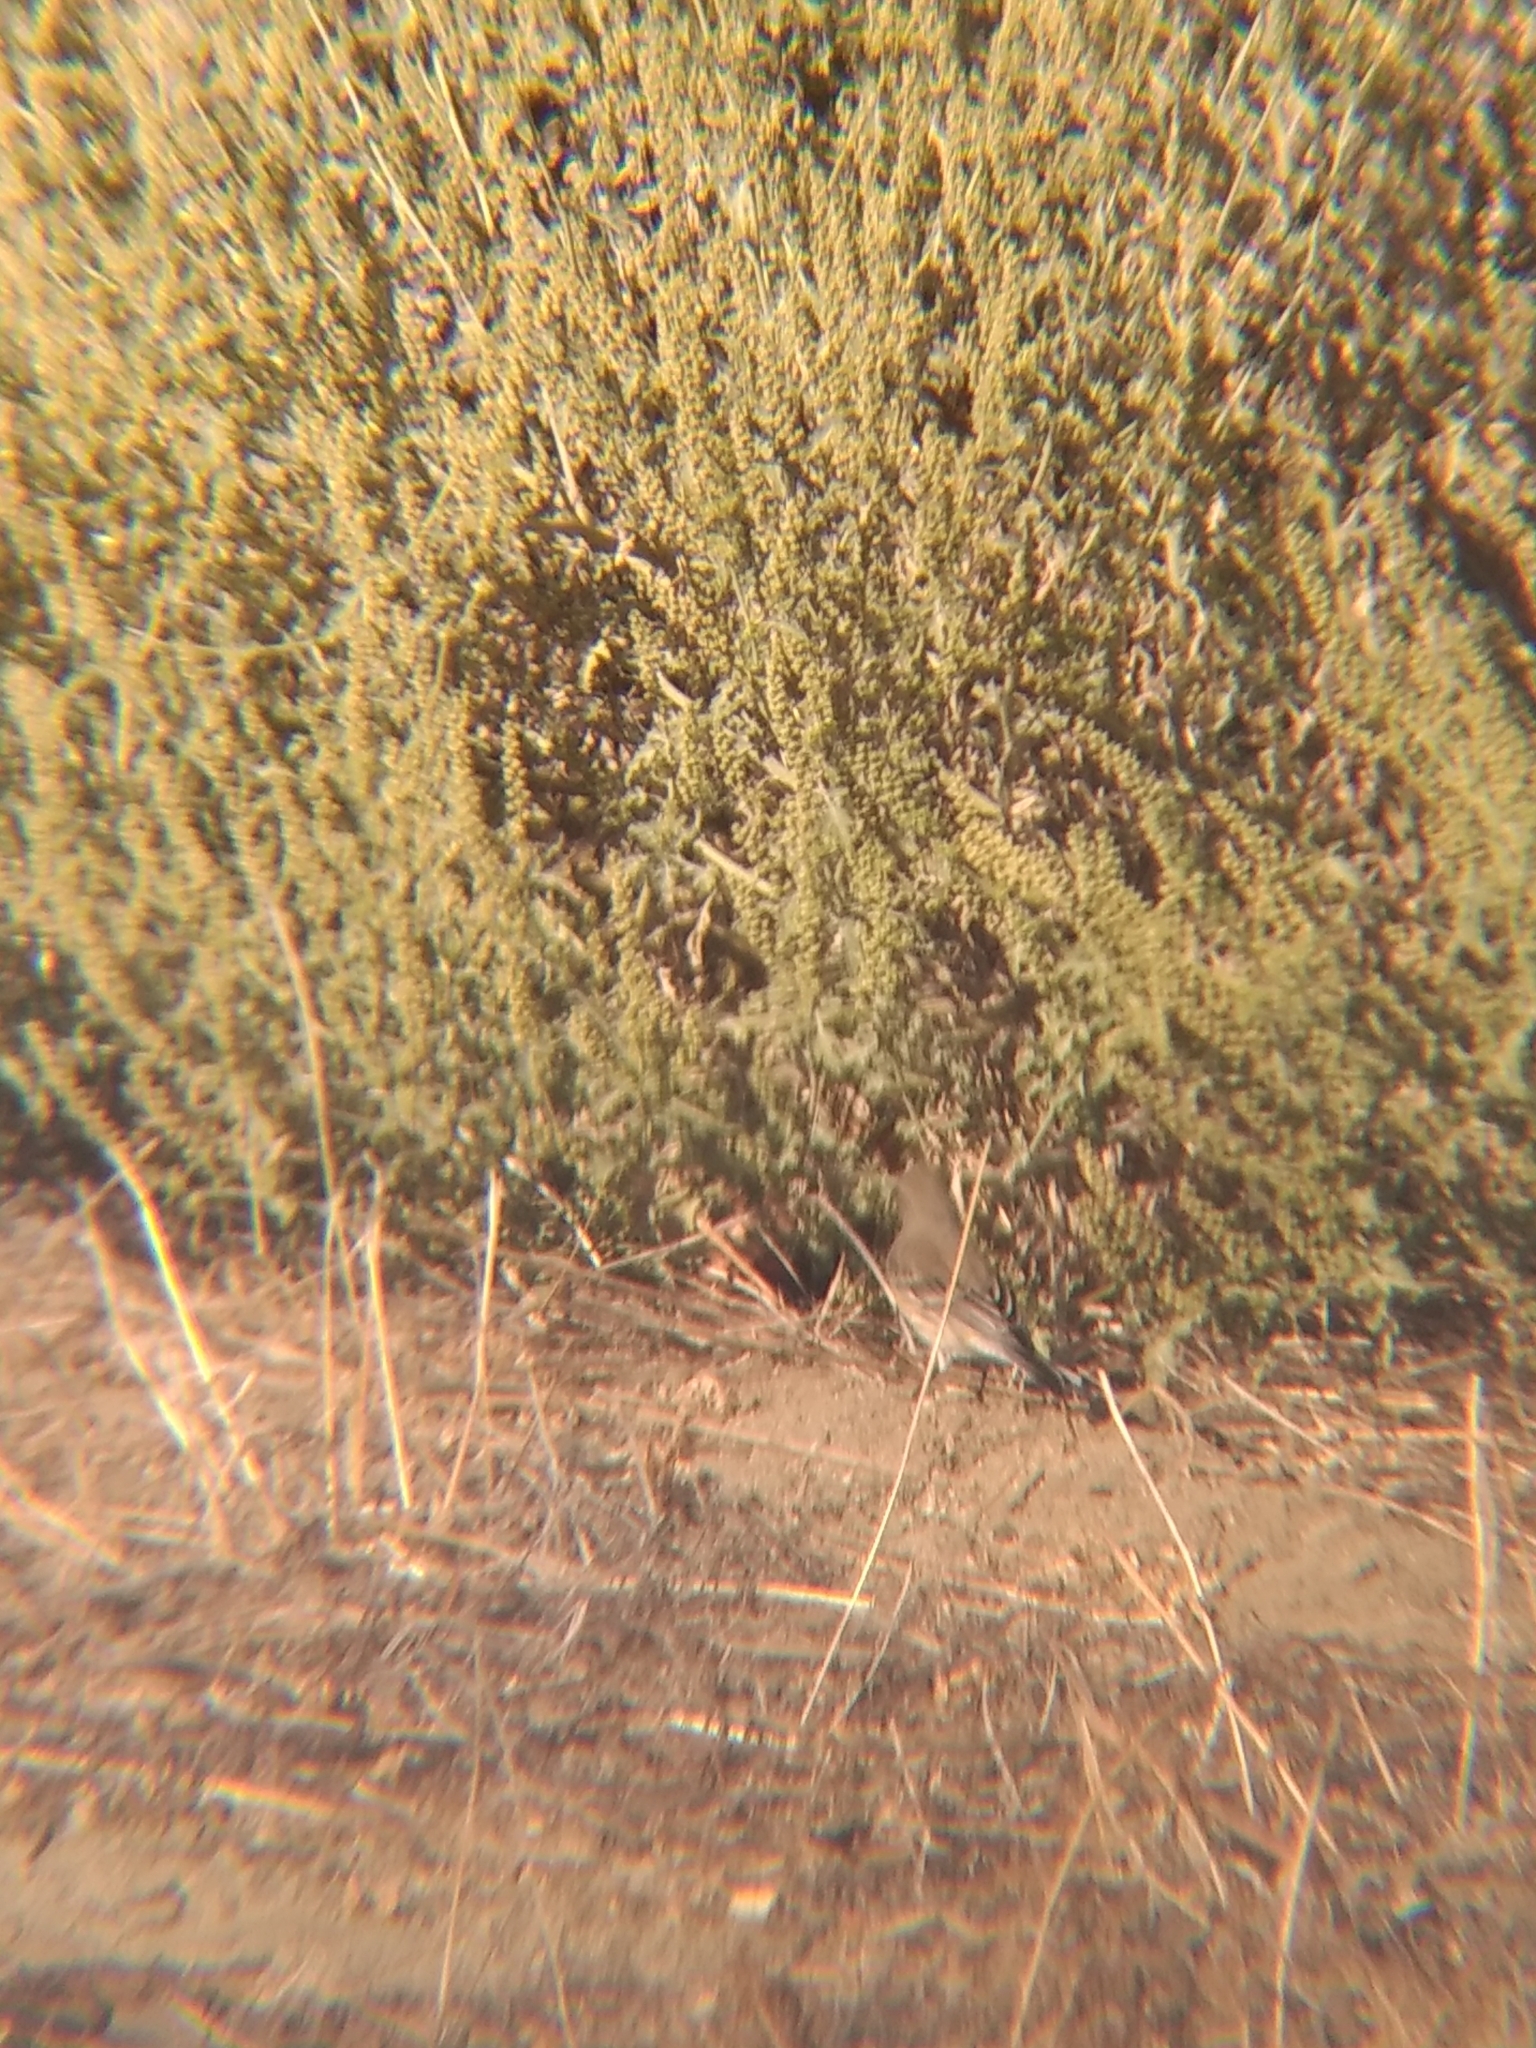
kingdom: Animalia
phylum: Chordata
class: Aves
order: Passeriformes
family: Parulidae
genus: Setophaga
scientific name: Setophaga coronata
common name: Myrtle warbler
